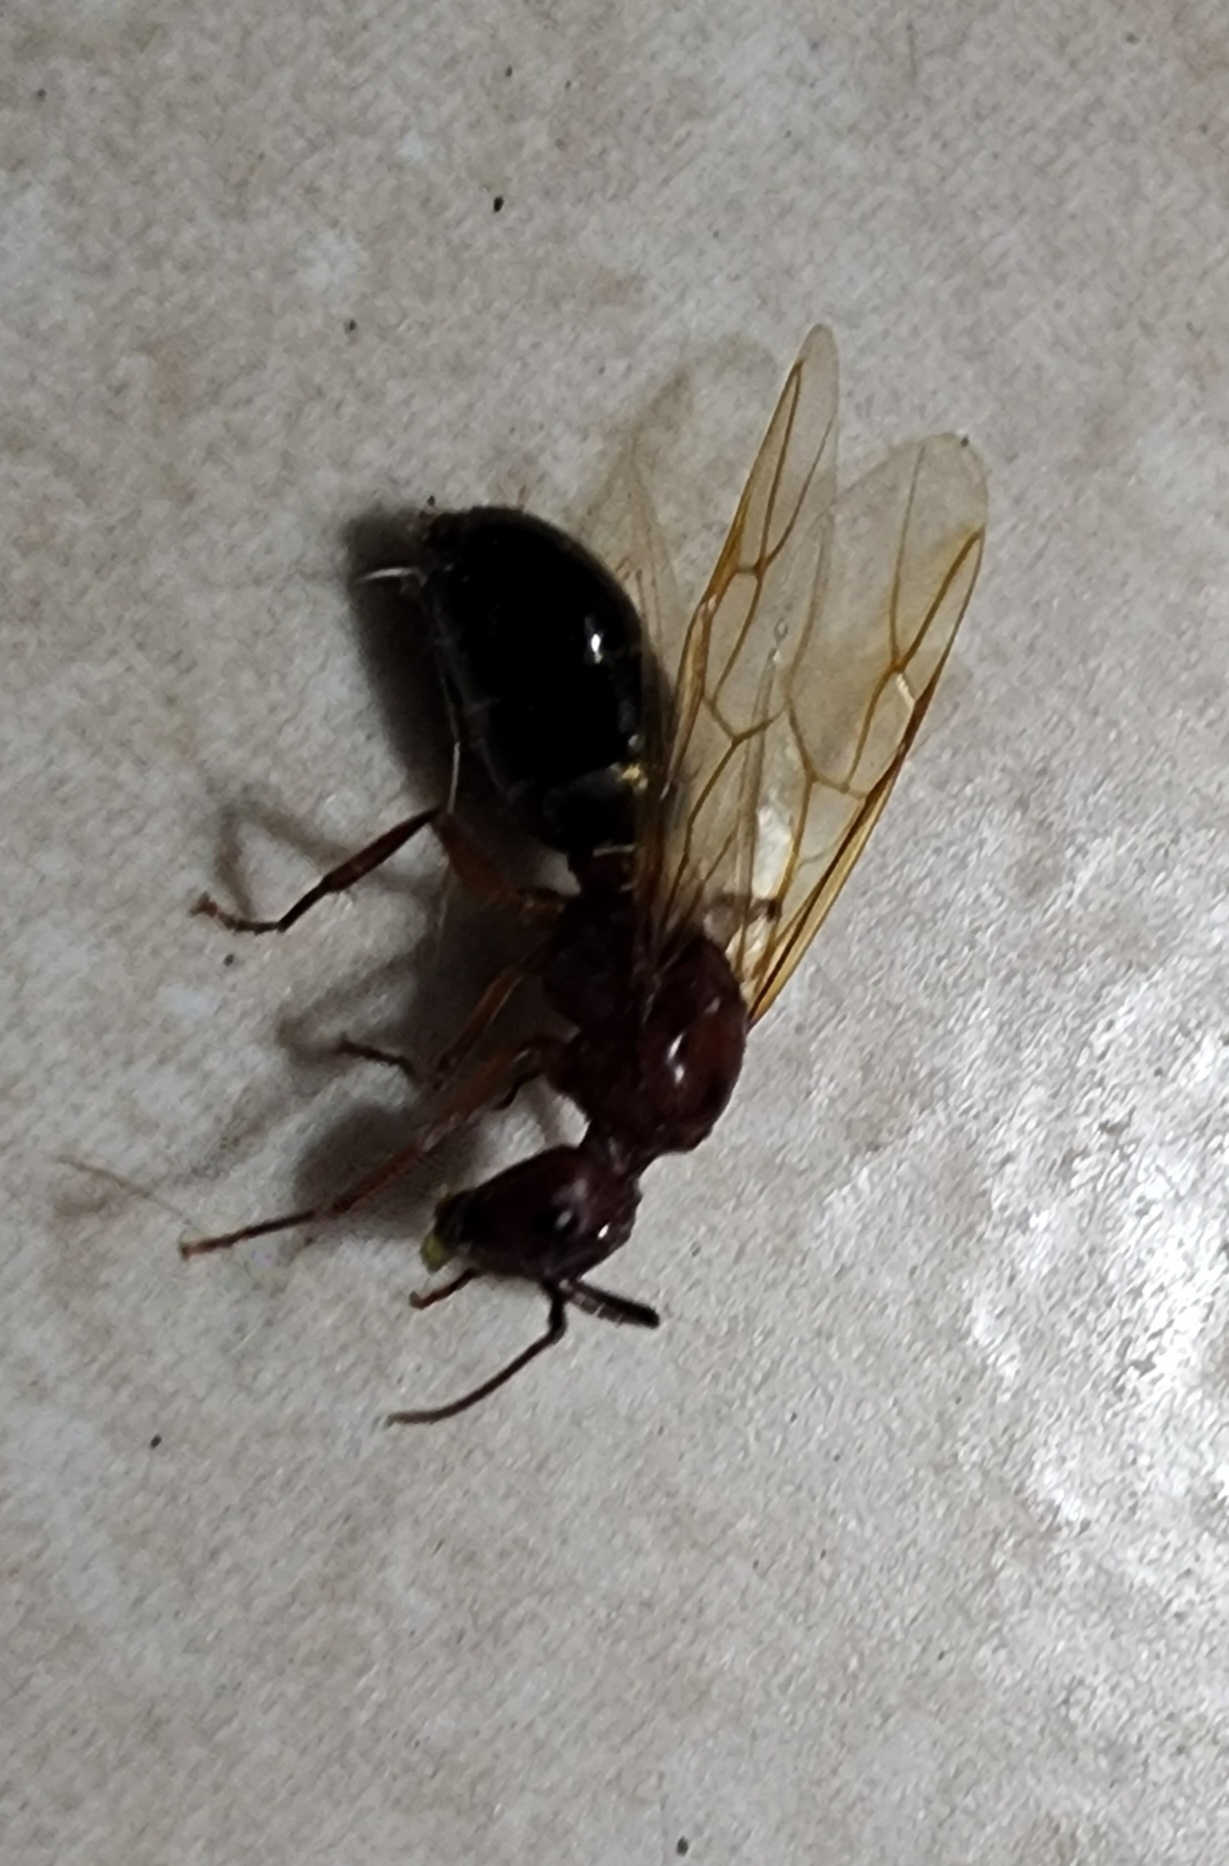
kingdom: Animalia
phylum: Arthropoda
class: Insecta
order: Hymenoptera
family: Formicidae
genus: Camponotus
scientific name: Camponotus floridanus
